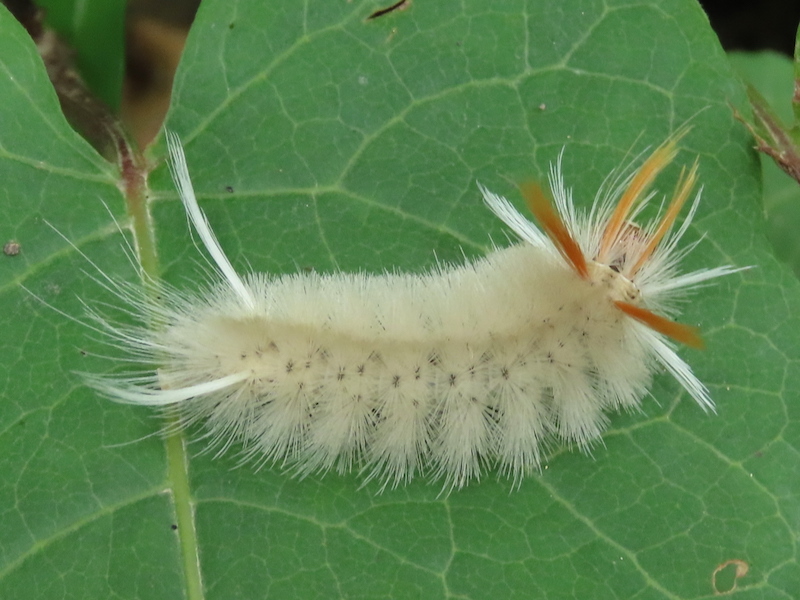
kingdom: Animalia
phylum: Arthropoda
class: Insecta
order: Lepidoptera
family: Erebidae
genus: Halysidota
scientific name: Halysidota harrisii
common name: Sycamore tussock moth
